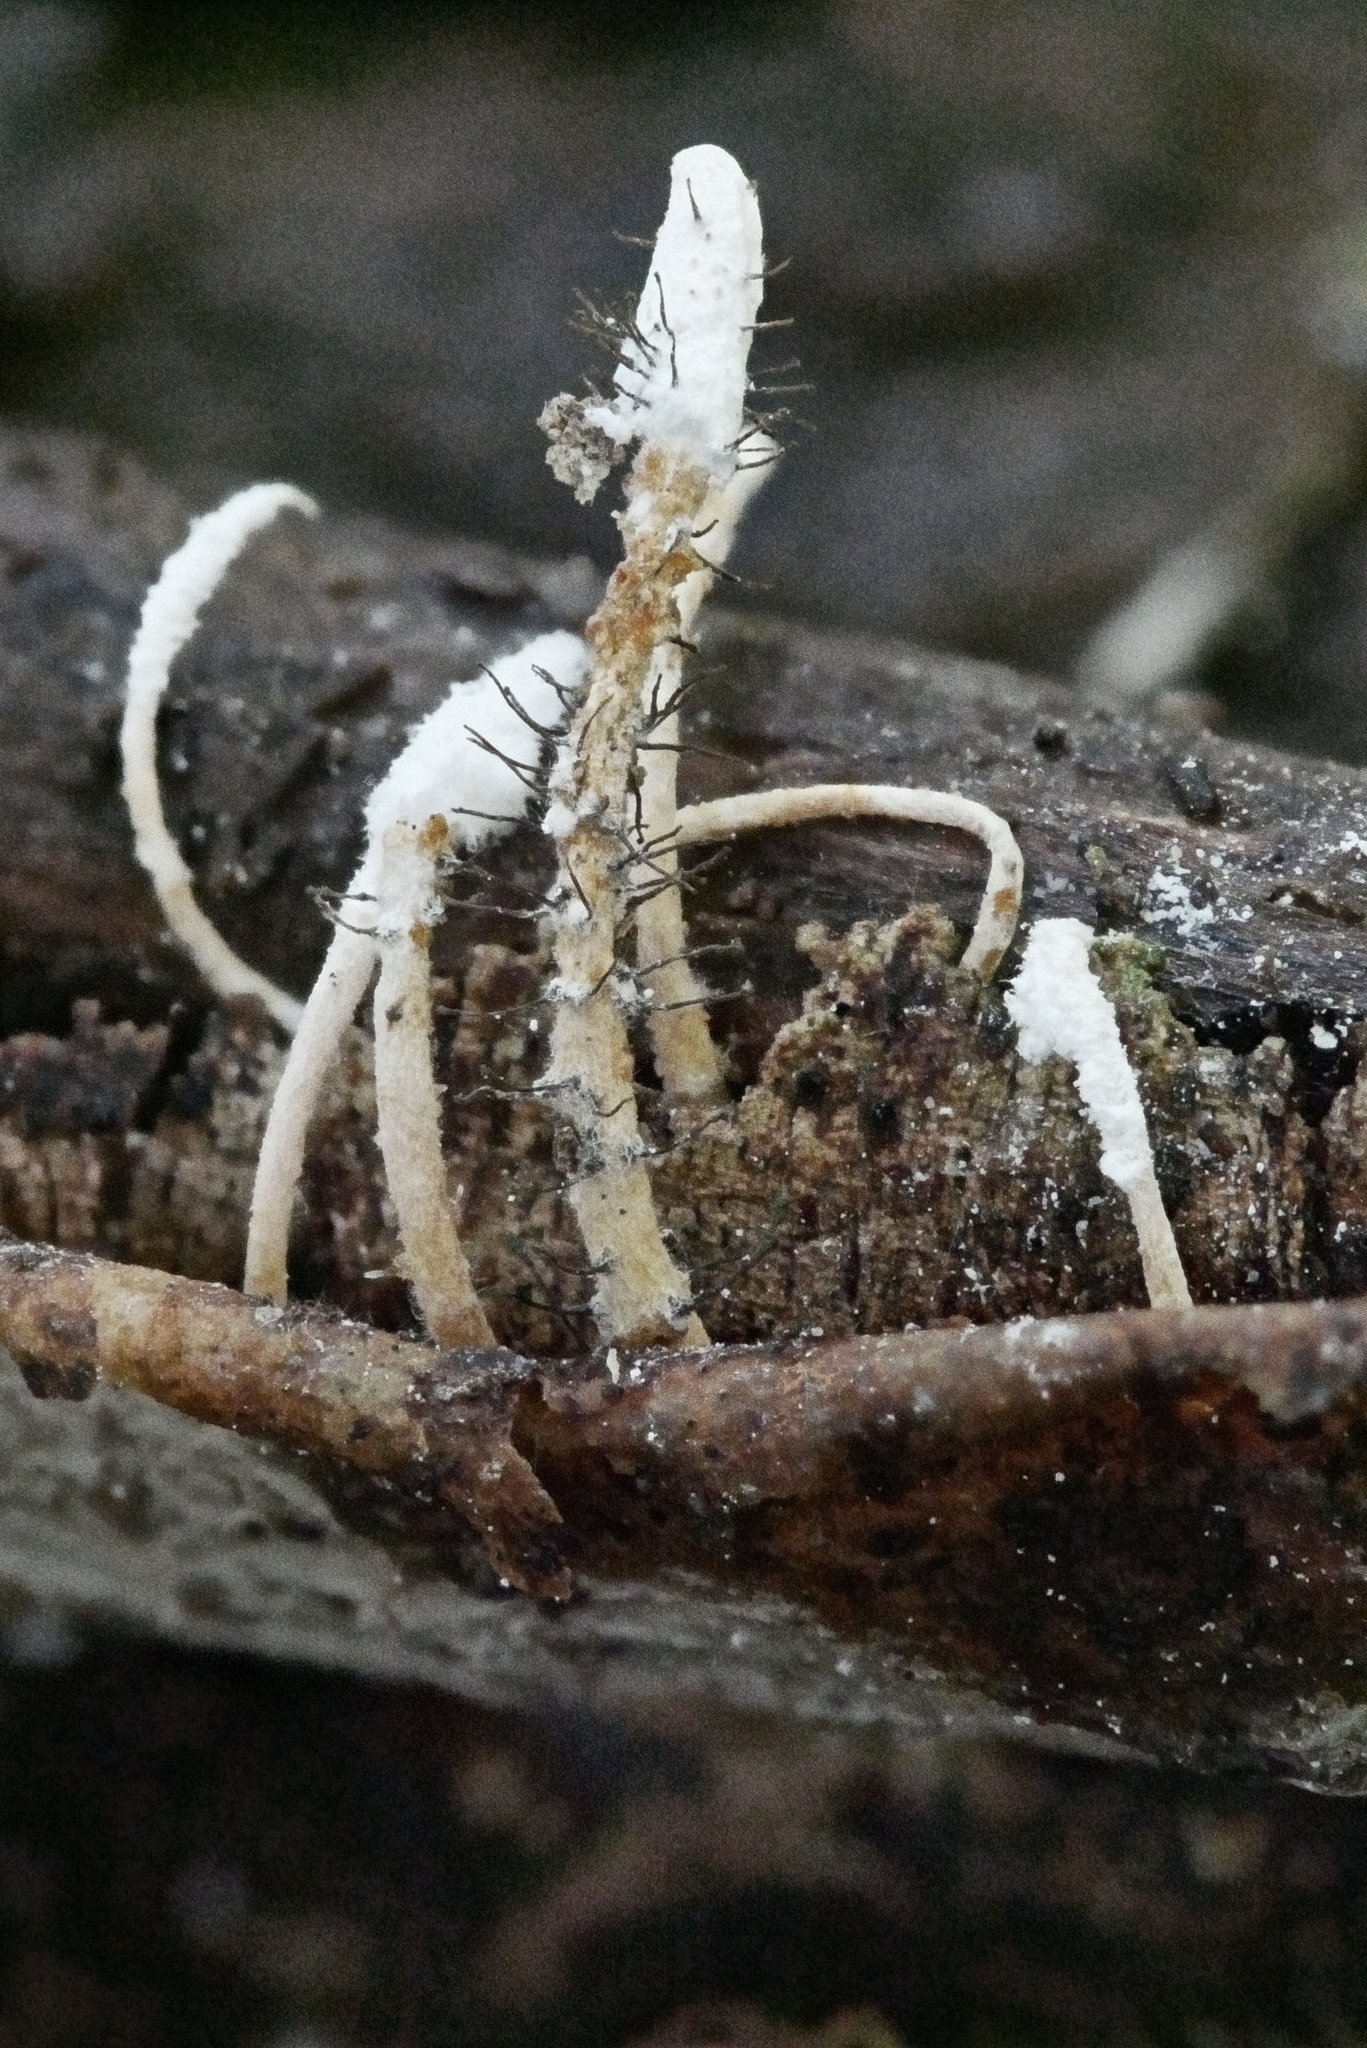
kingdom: Fungi
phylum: Ascomycota
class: Sordariomycetes
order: Hypocreales
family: Hypocreaceae
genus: Syspastospora
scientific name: Syspastospora parasitica
